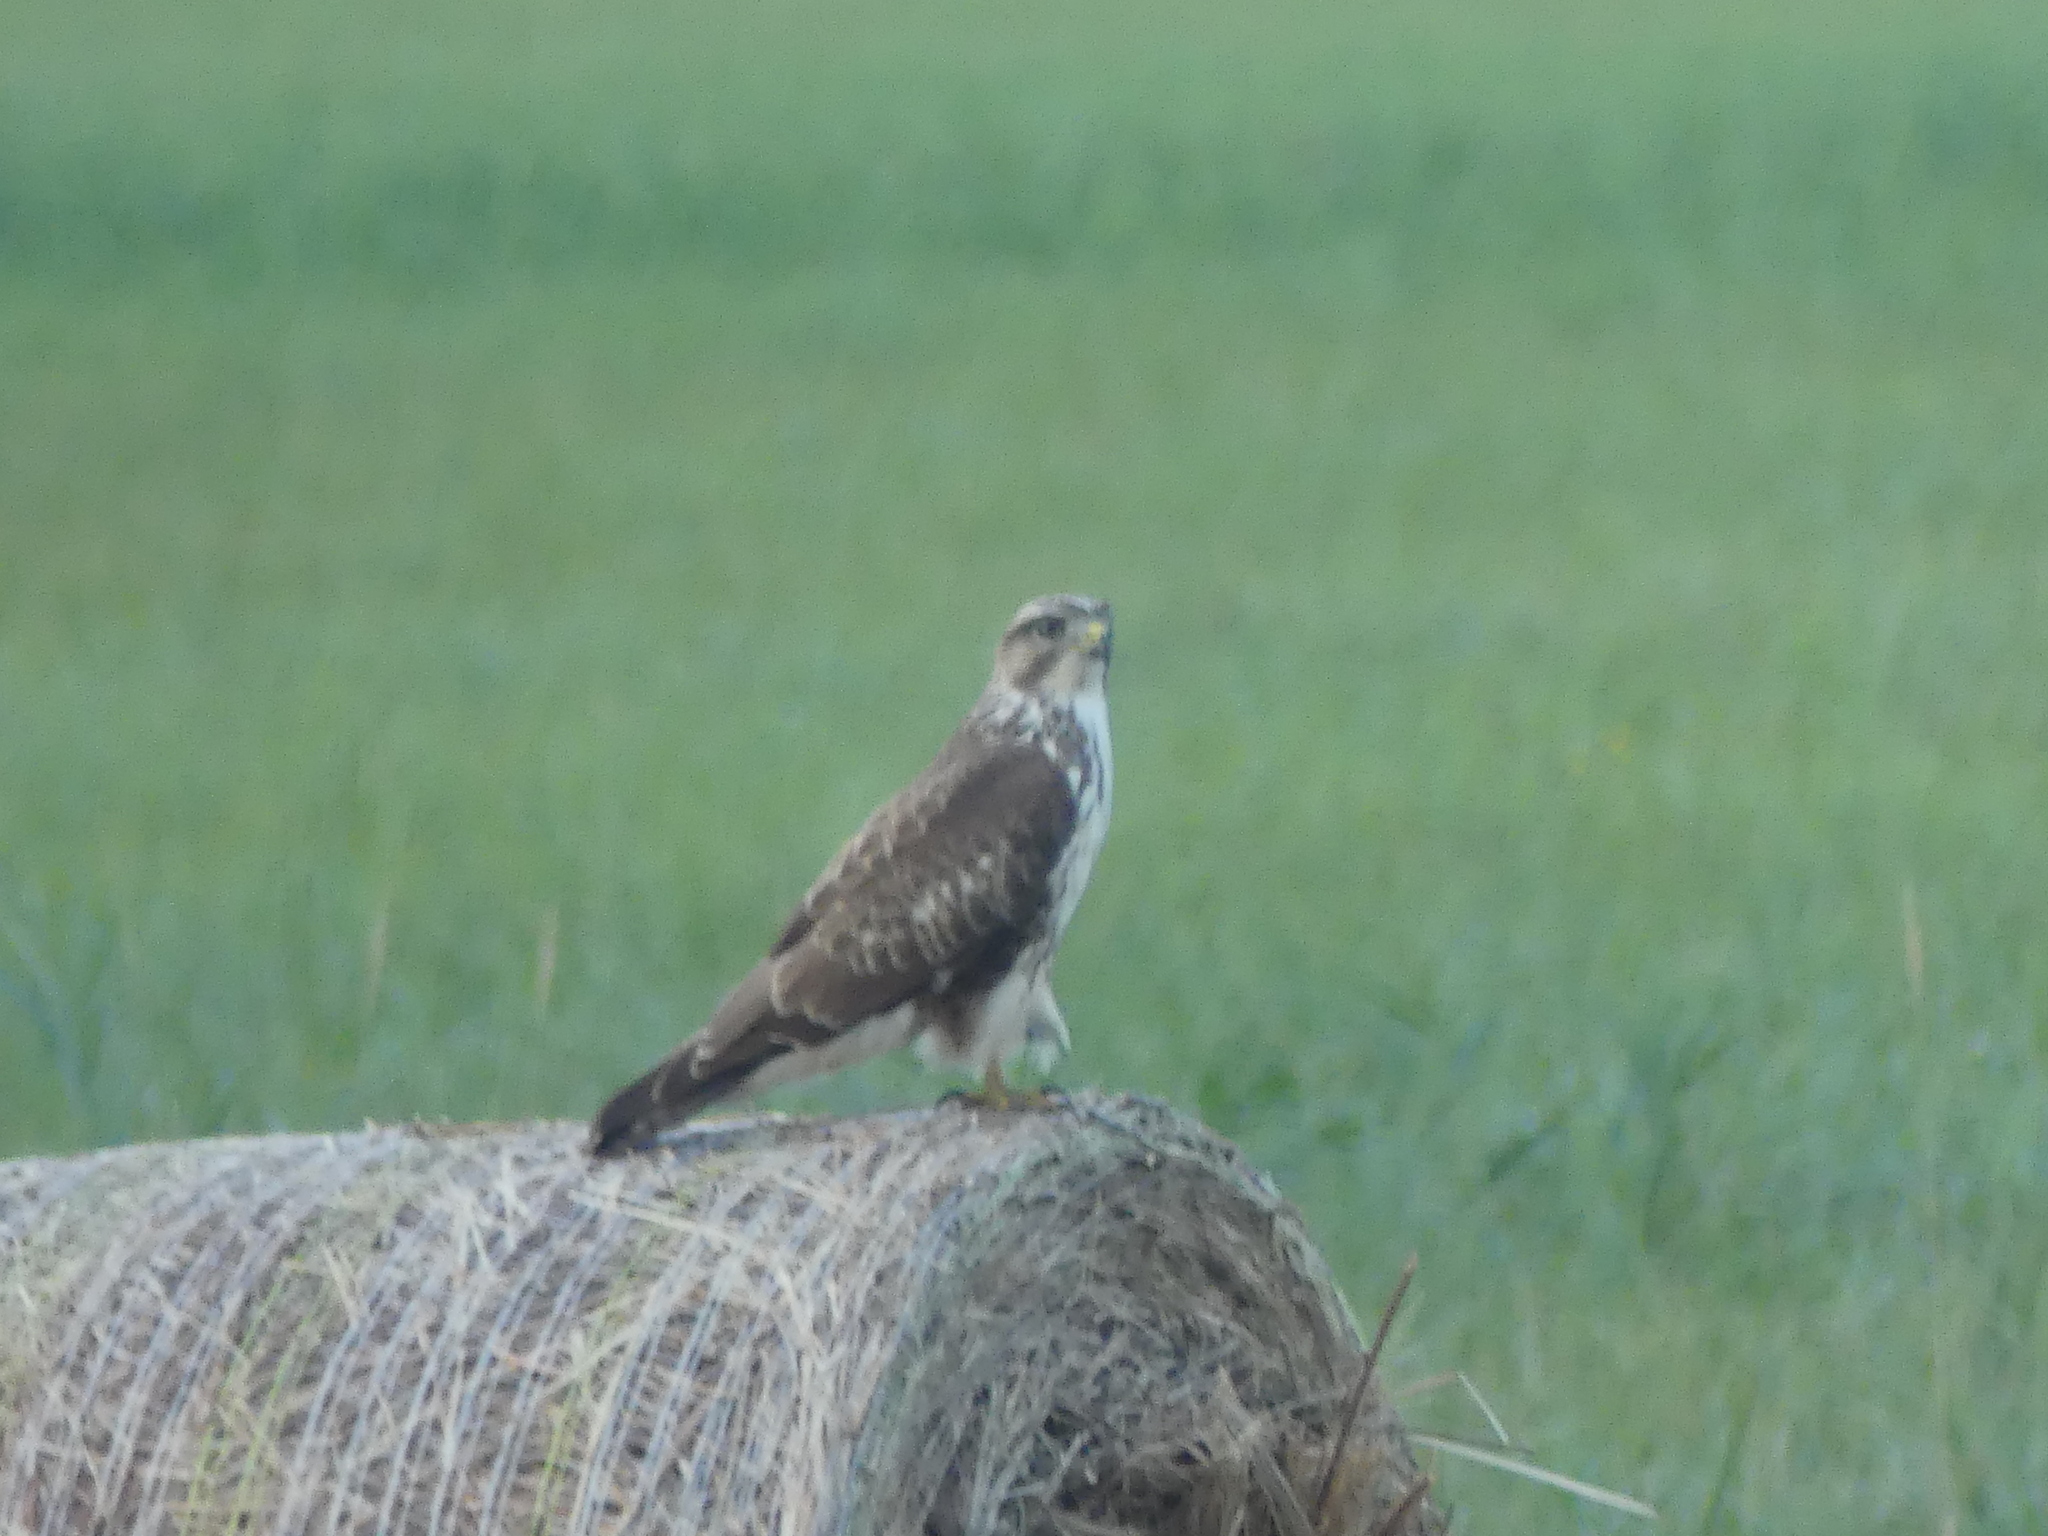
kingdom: Animalia
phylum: Chordata
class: Aves
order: Accipitriformes
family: Accipitridae
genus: Buteo
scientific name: Buteo buteo
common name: Common buzzard
